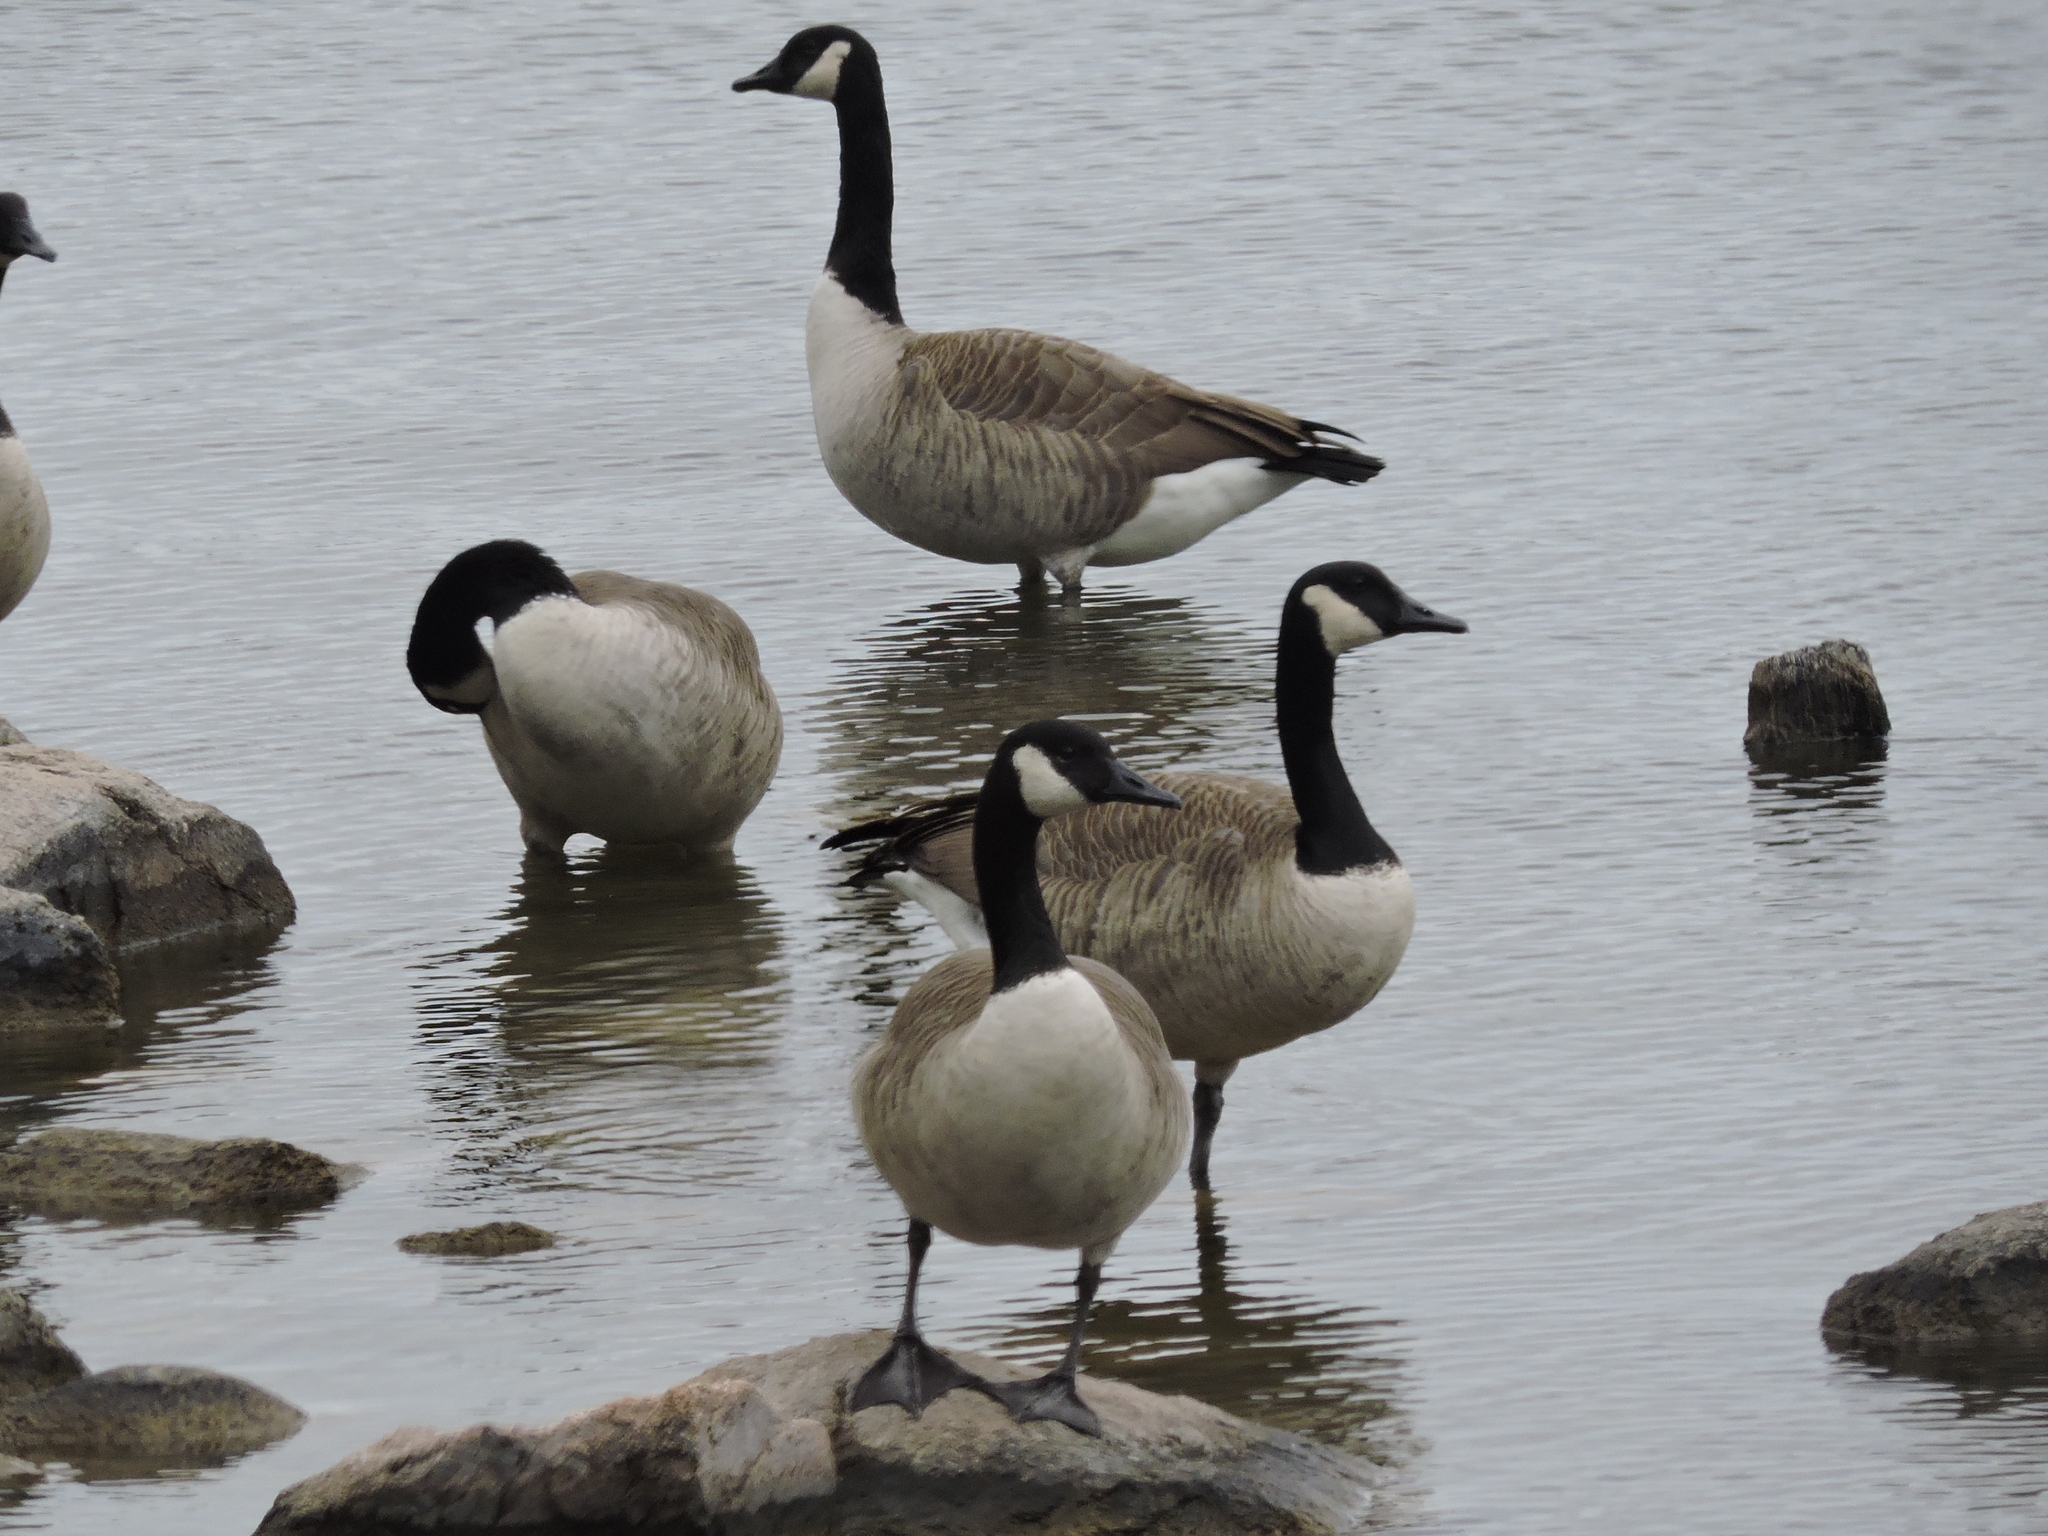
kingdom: Animalia
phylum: Chordata
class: Aves
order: Anseriformes
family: Anatidae
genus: Branta
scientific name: Branta canadensis
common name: Canada goose
